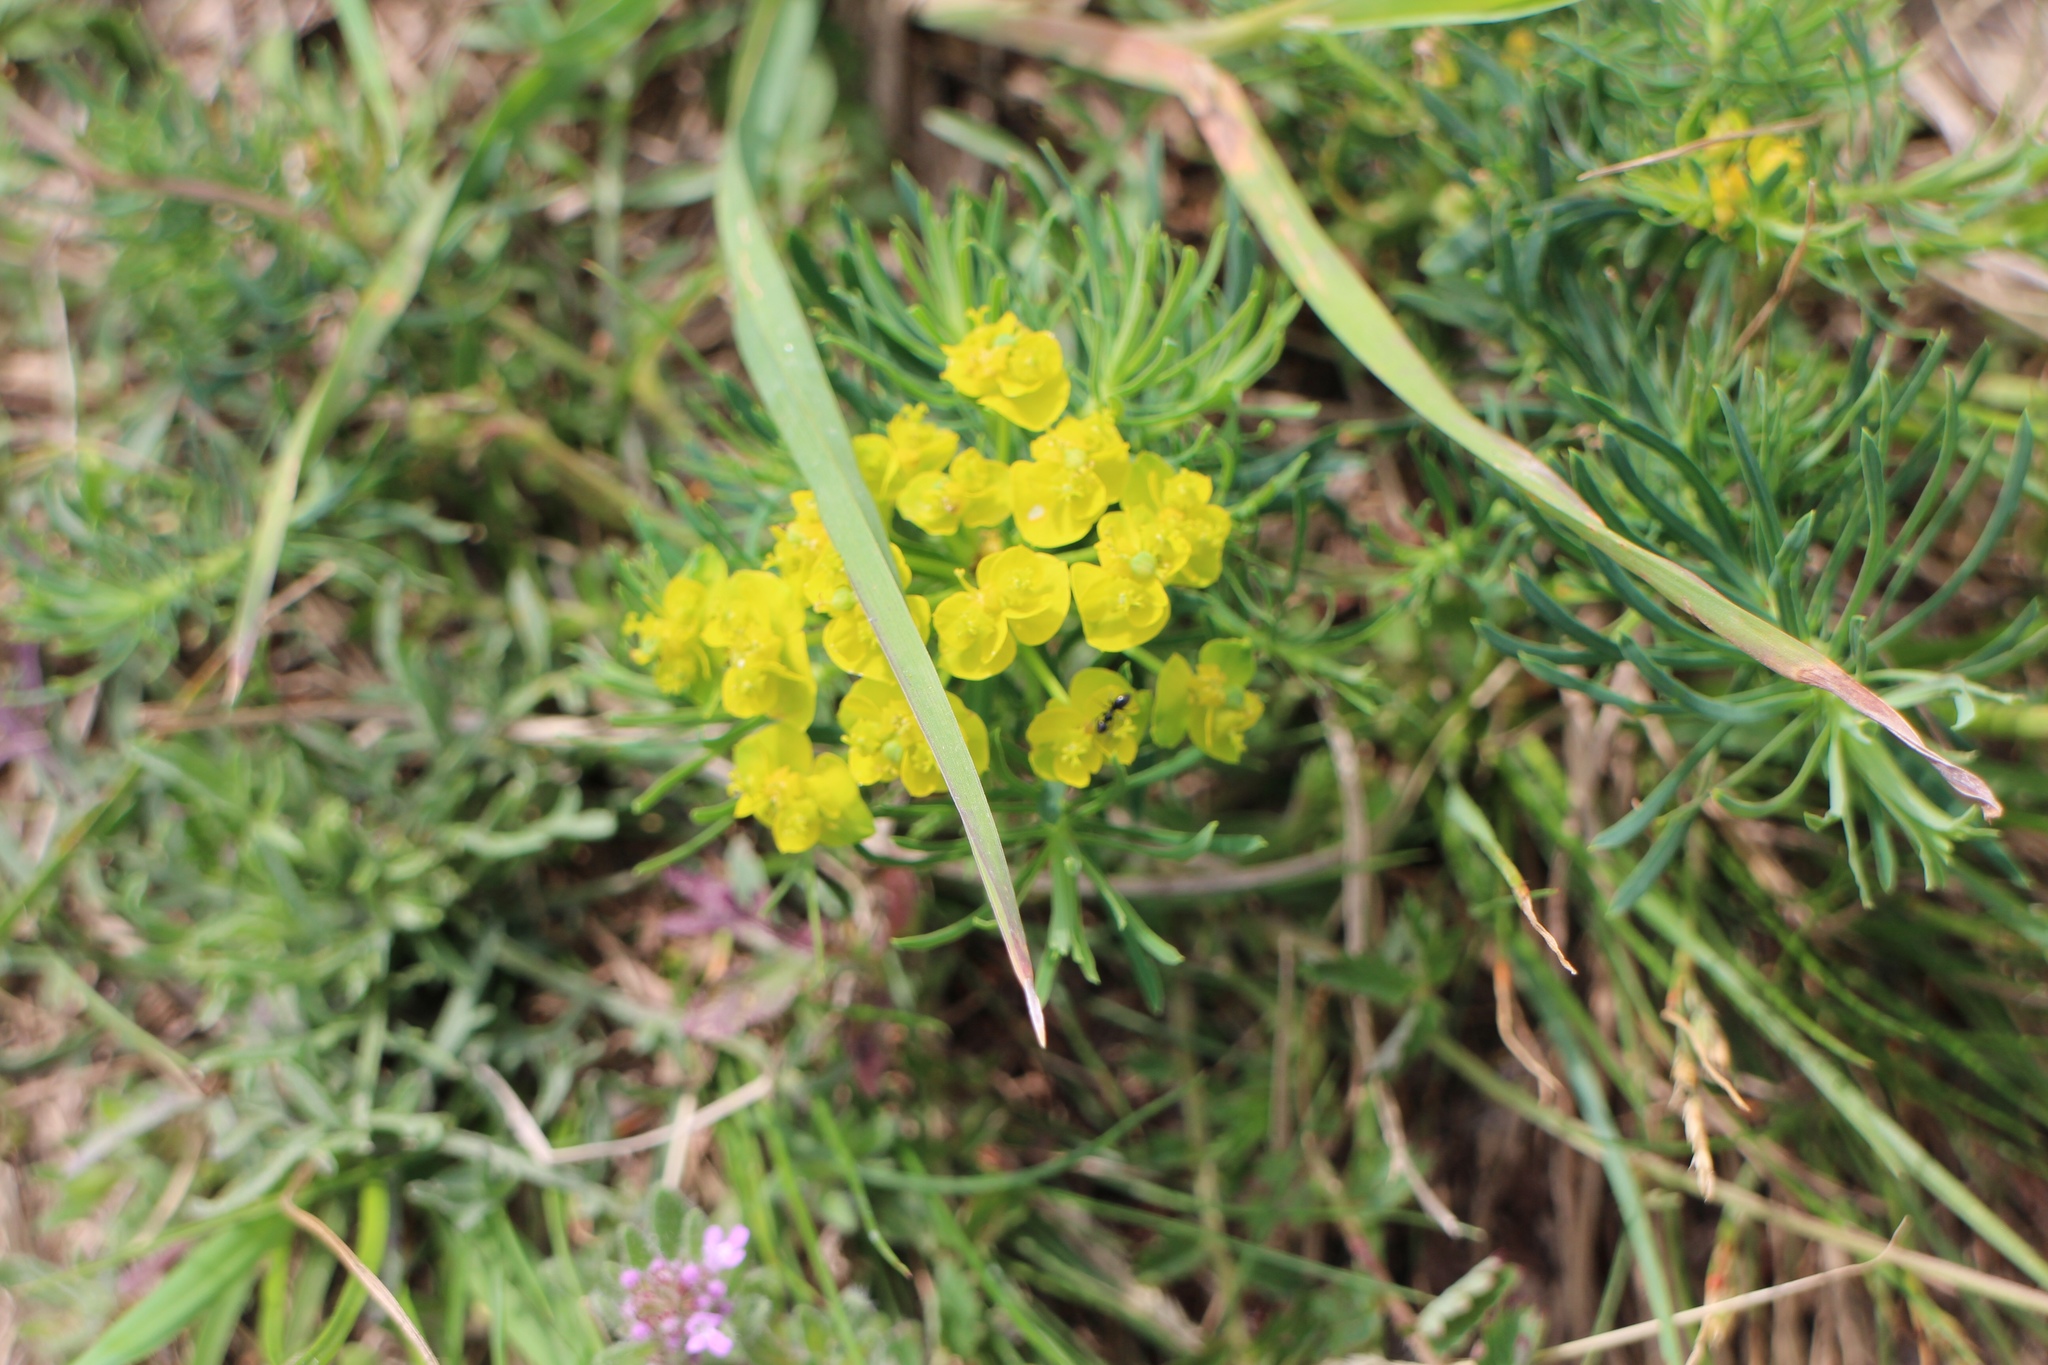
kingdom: Plantae
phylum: Tracheophyta
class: Magnoliopsida
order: Malpighiales
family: Euphorbiaceae
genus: Euphorbia
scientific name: Euphorbia cyparissias
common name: Cypress spurge
